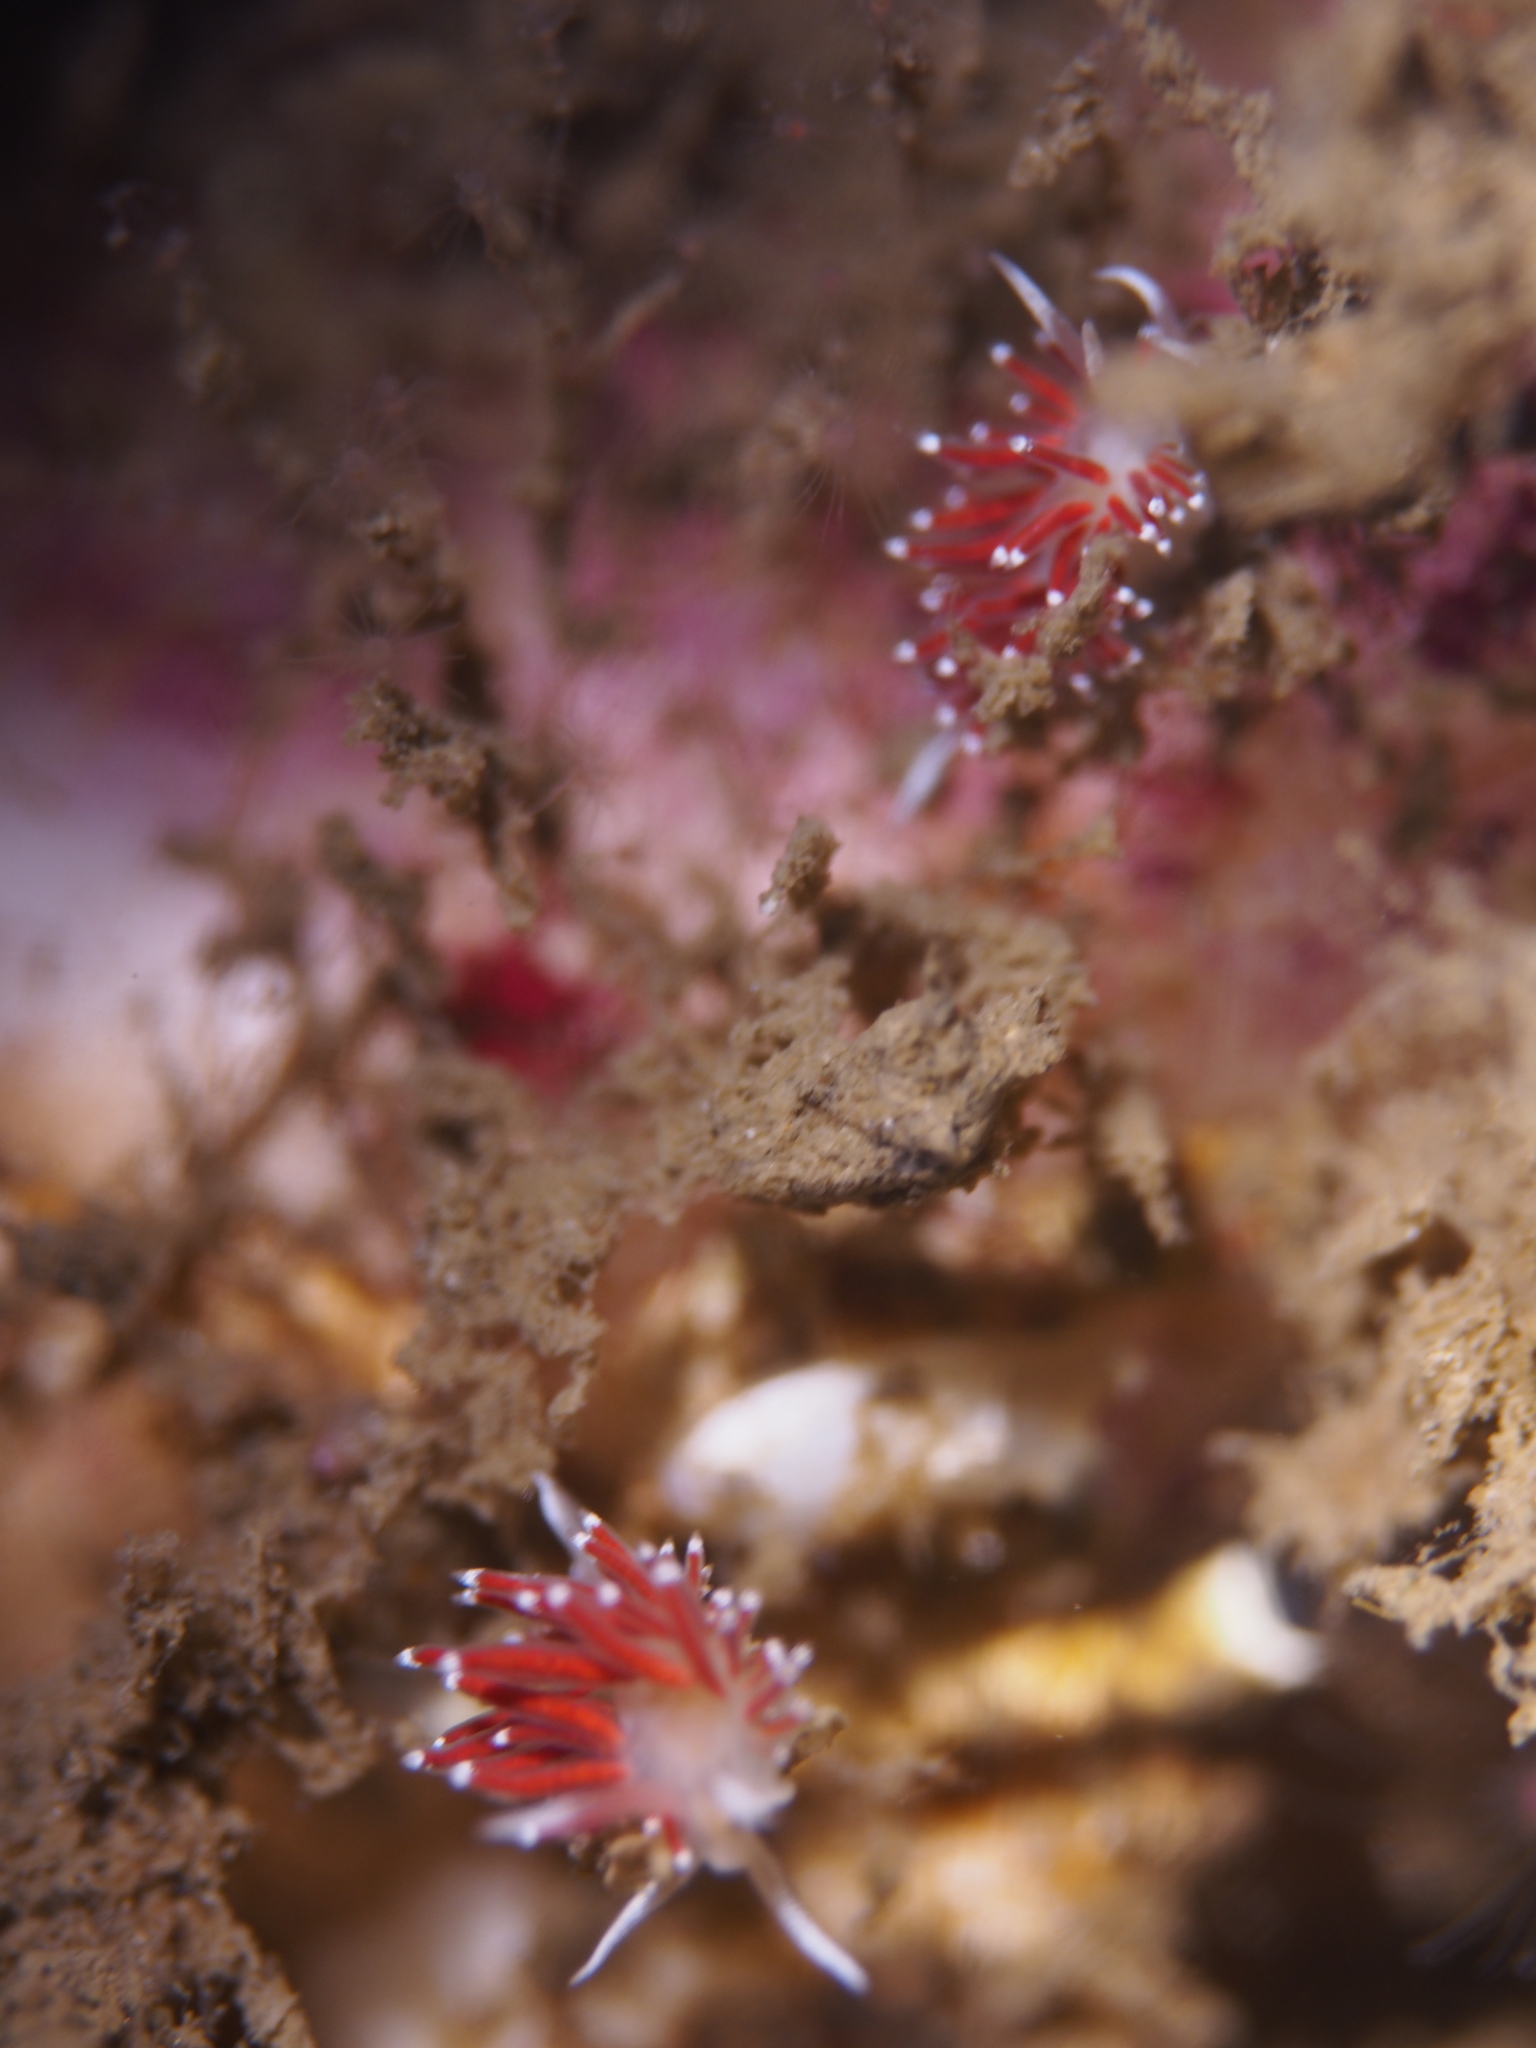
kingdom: Animalia
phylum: Mollusca
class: Gastropoda
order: Nudibranchia
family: Coryphellidae
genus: Coryphella
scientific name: Coryphella gracilis
